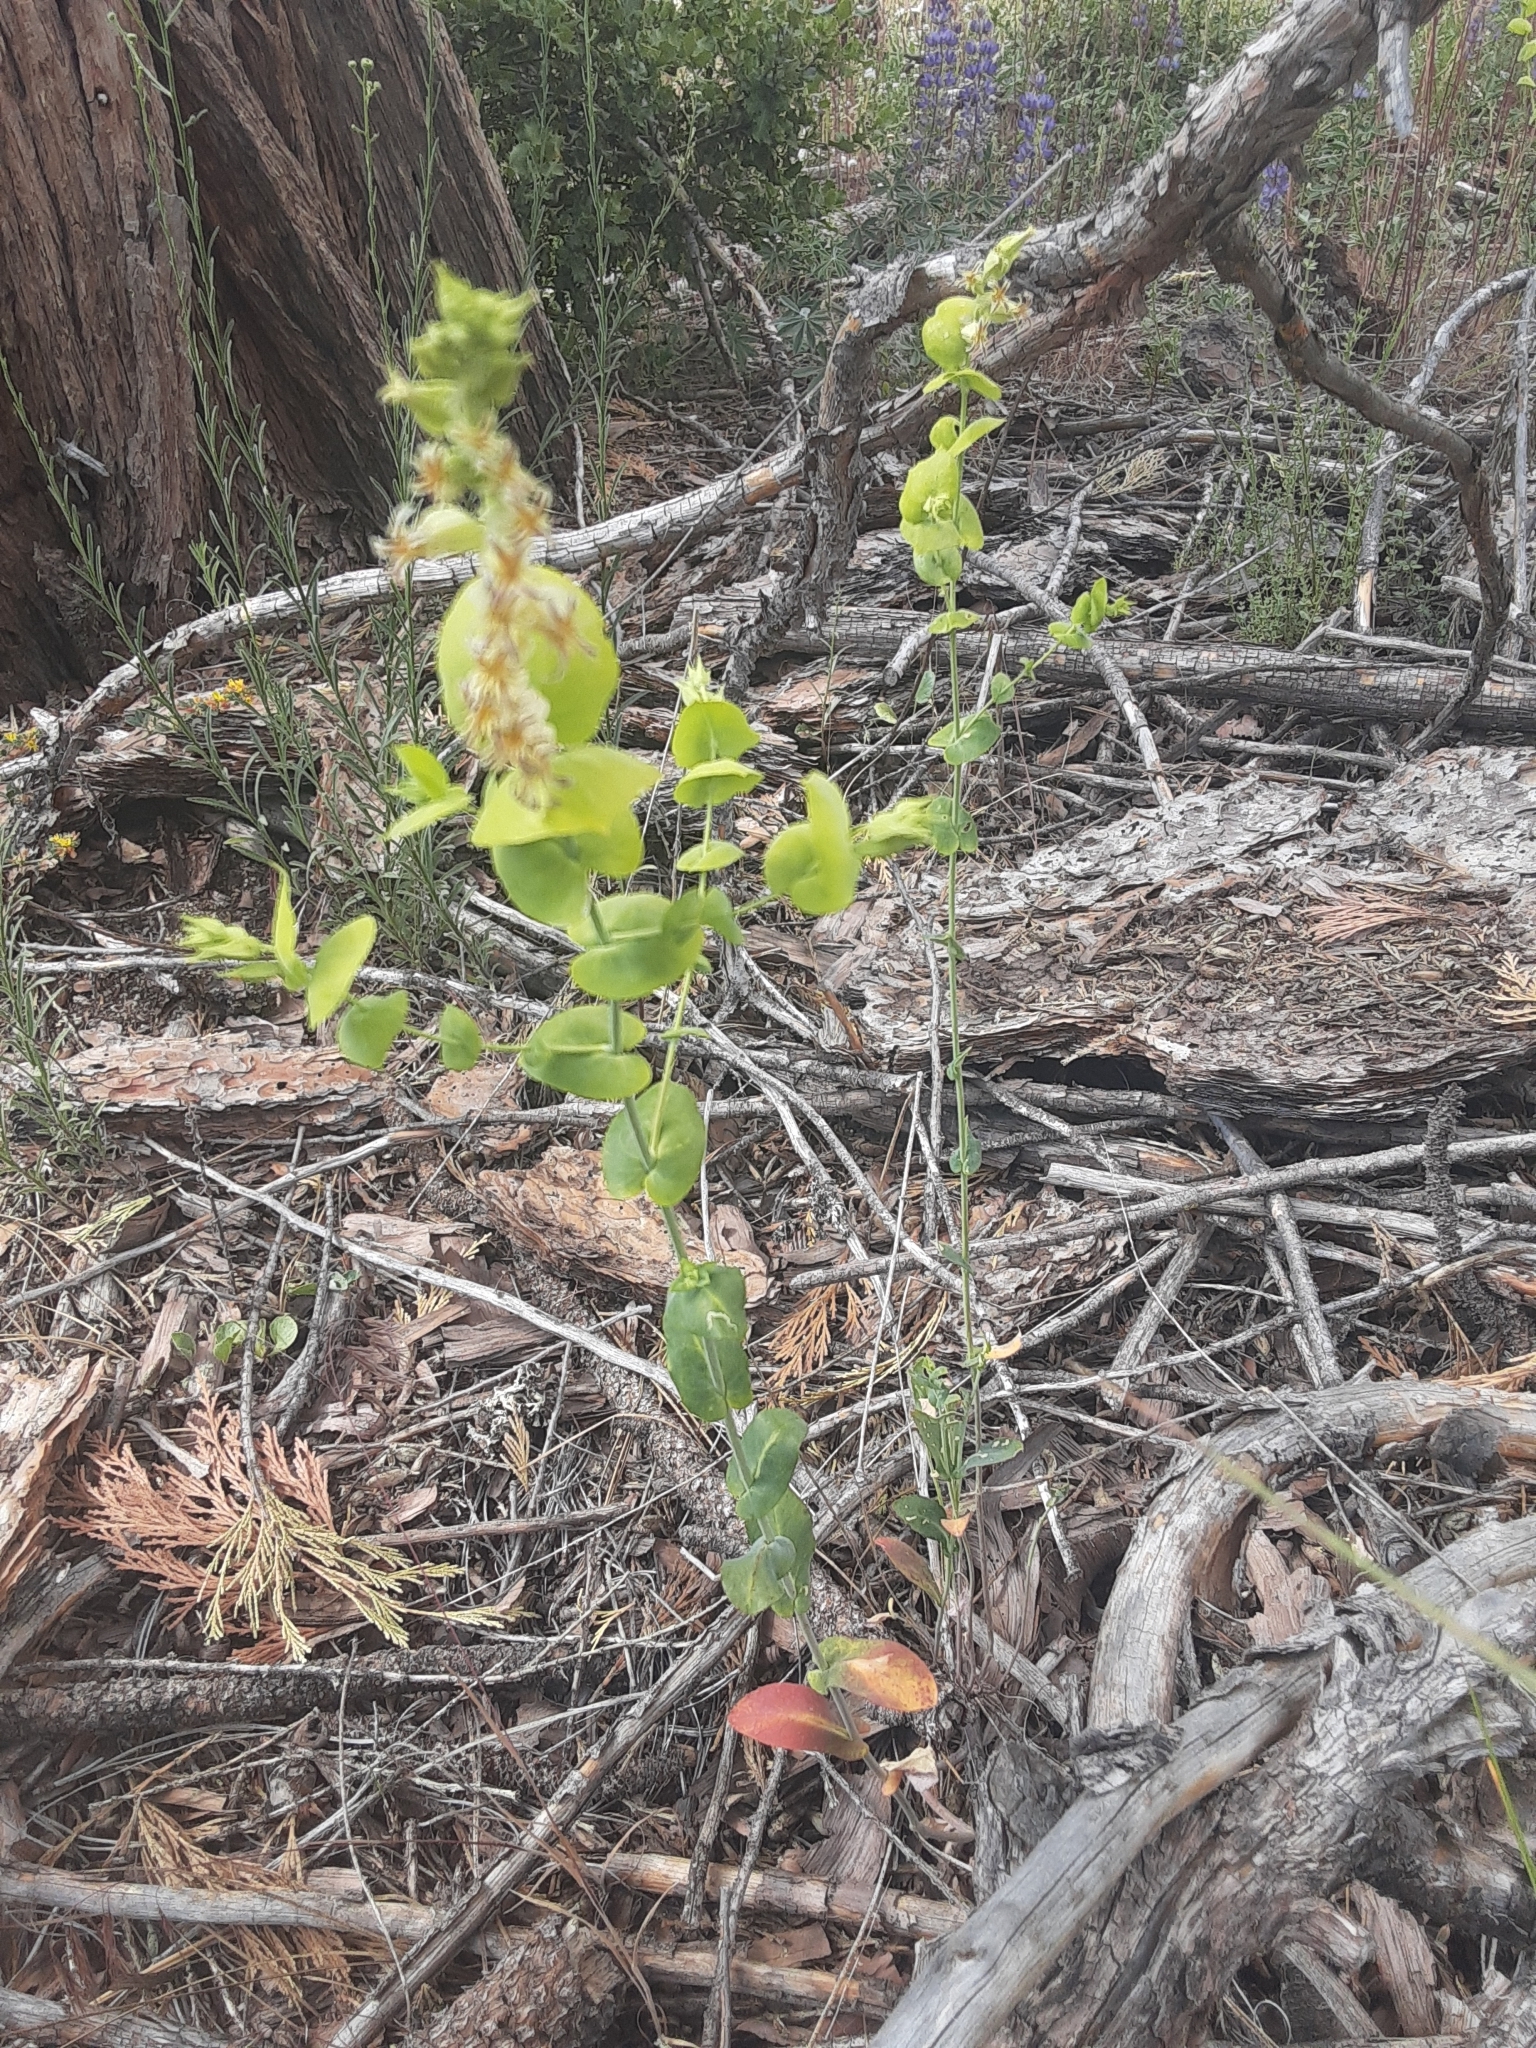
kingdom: Plantae
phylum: Tracheophyta
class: Magnoliopsida
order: Brassicales
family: Brassicaceae
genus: Streptanthus
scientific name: Streptanthus tortuosus
